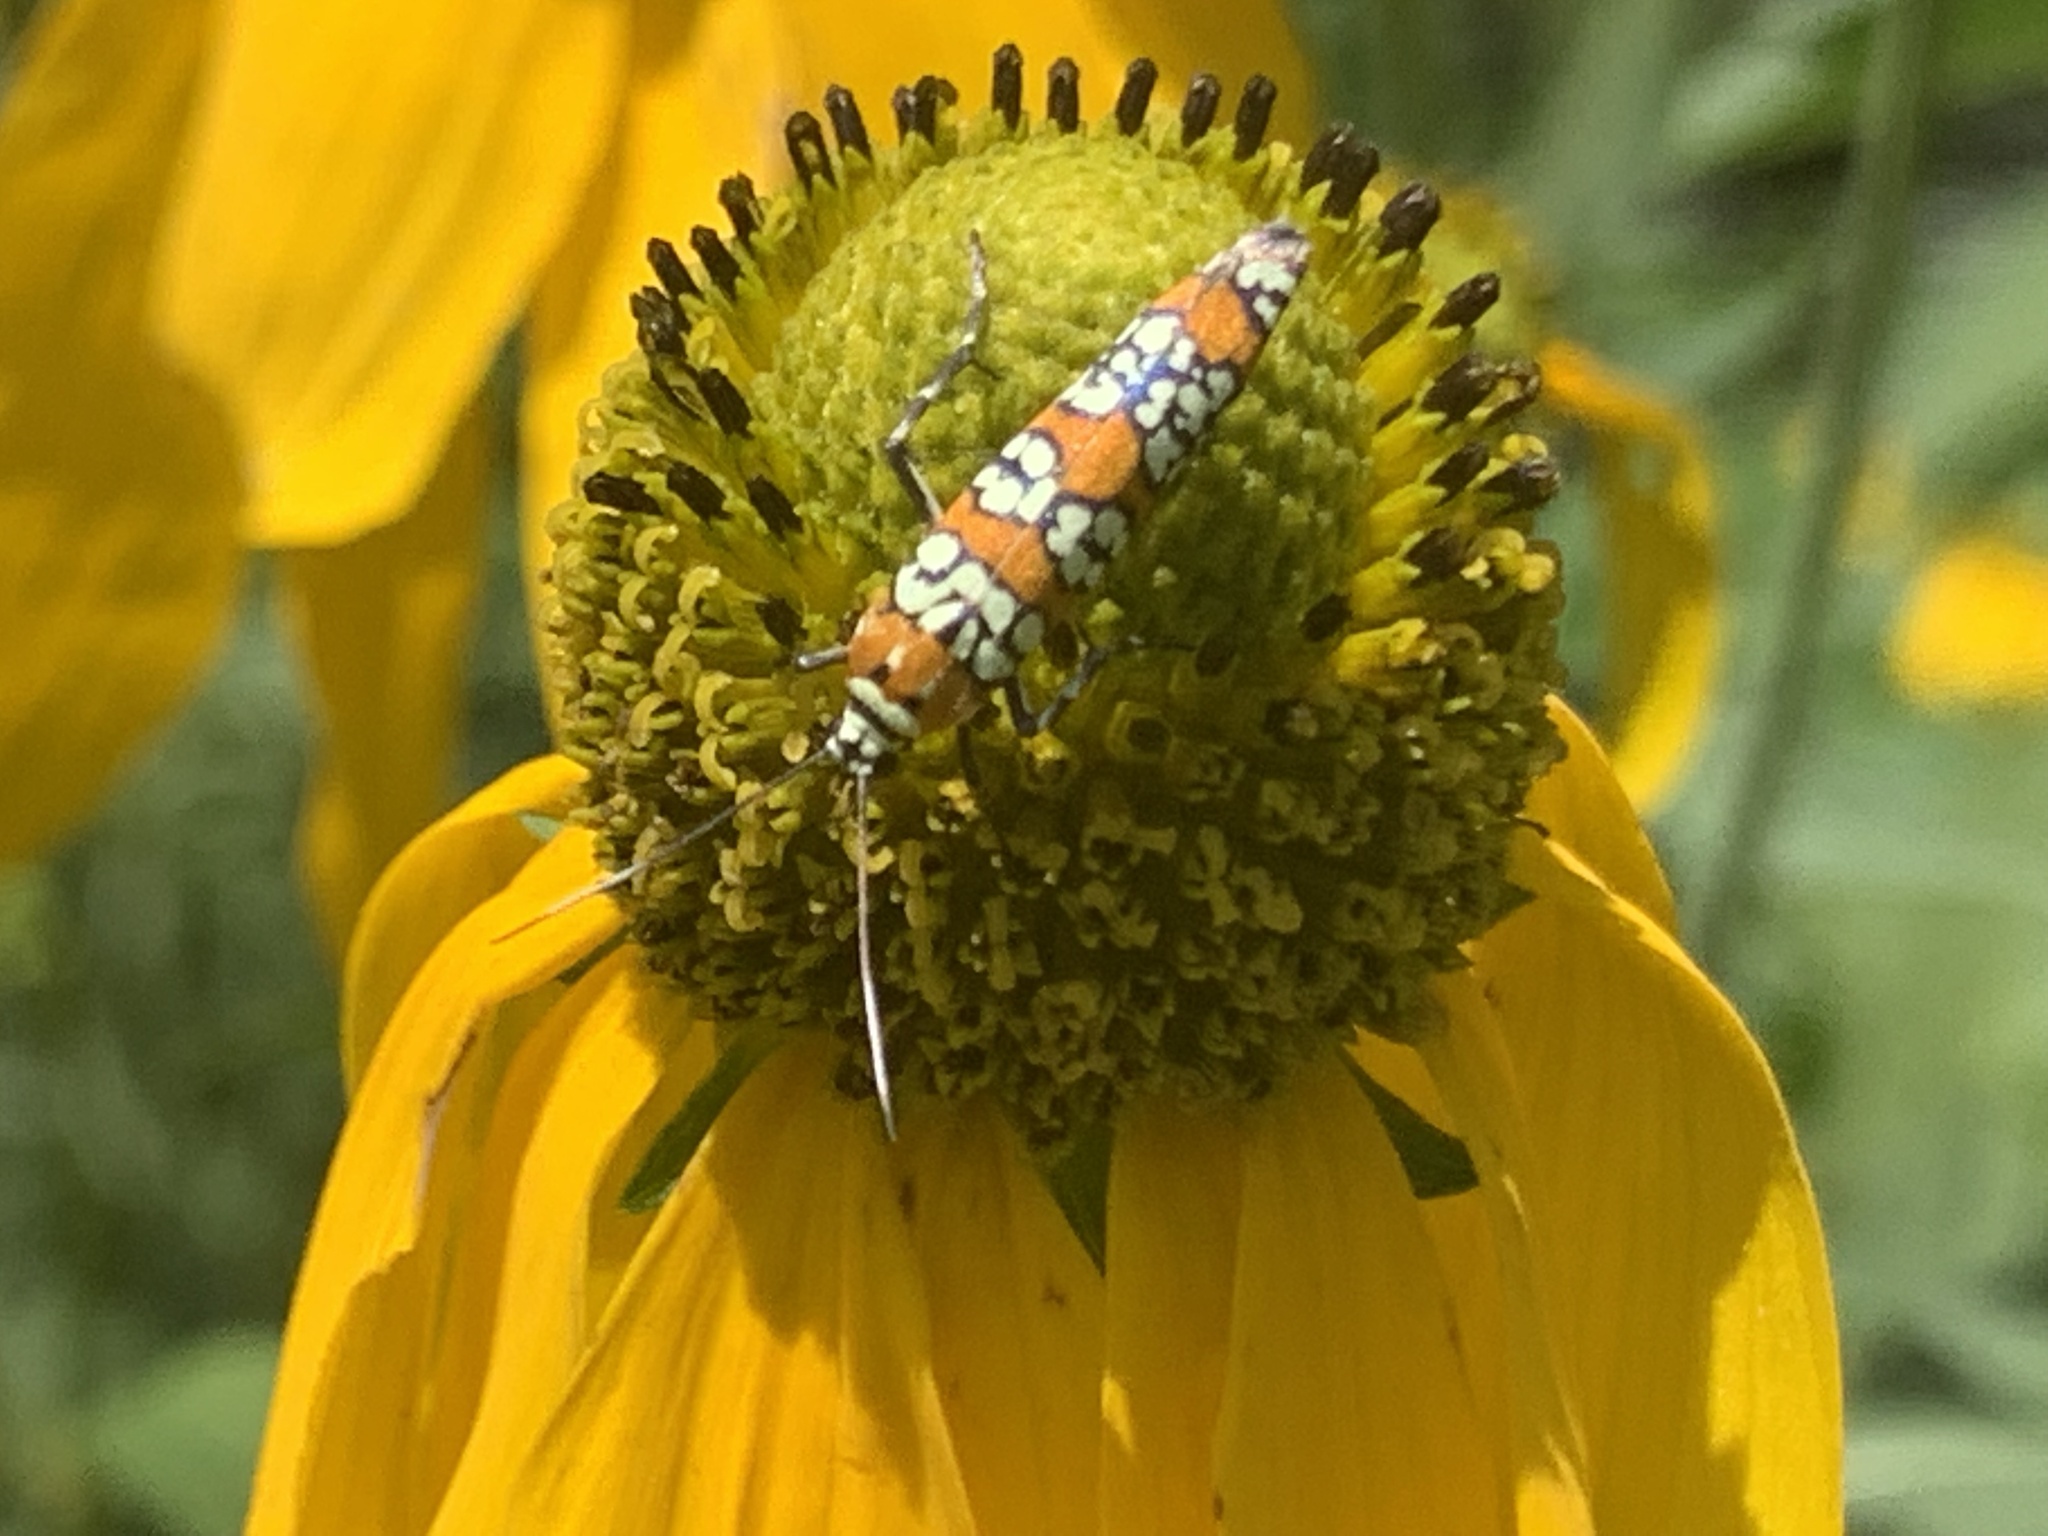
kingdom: Animalia
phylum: Arthropoda
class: Insecta
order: Lepidoptera
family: Attevidae
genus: Atteva
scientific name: Atteva punctella
